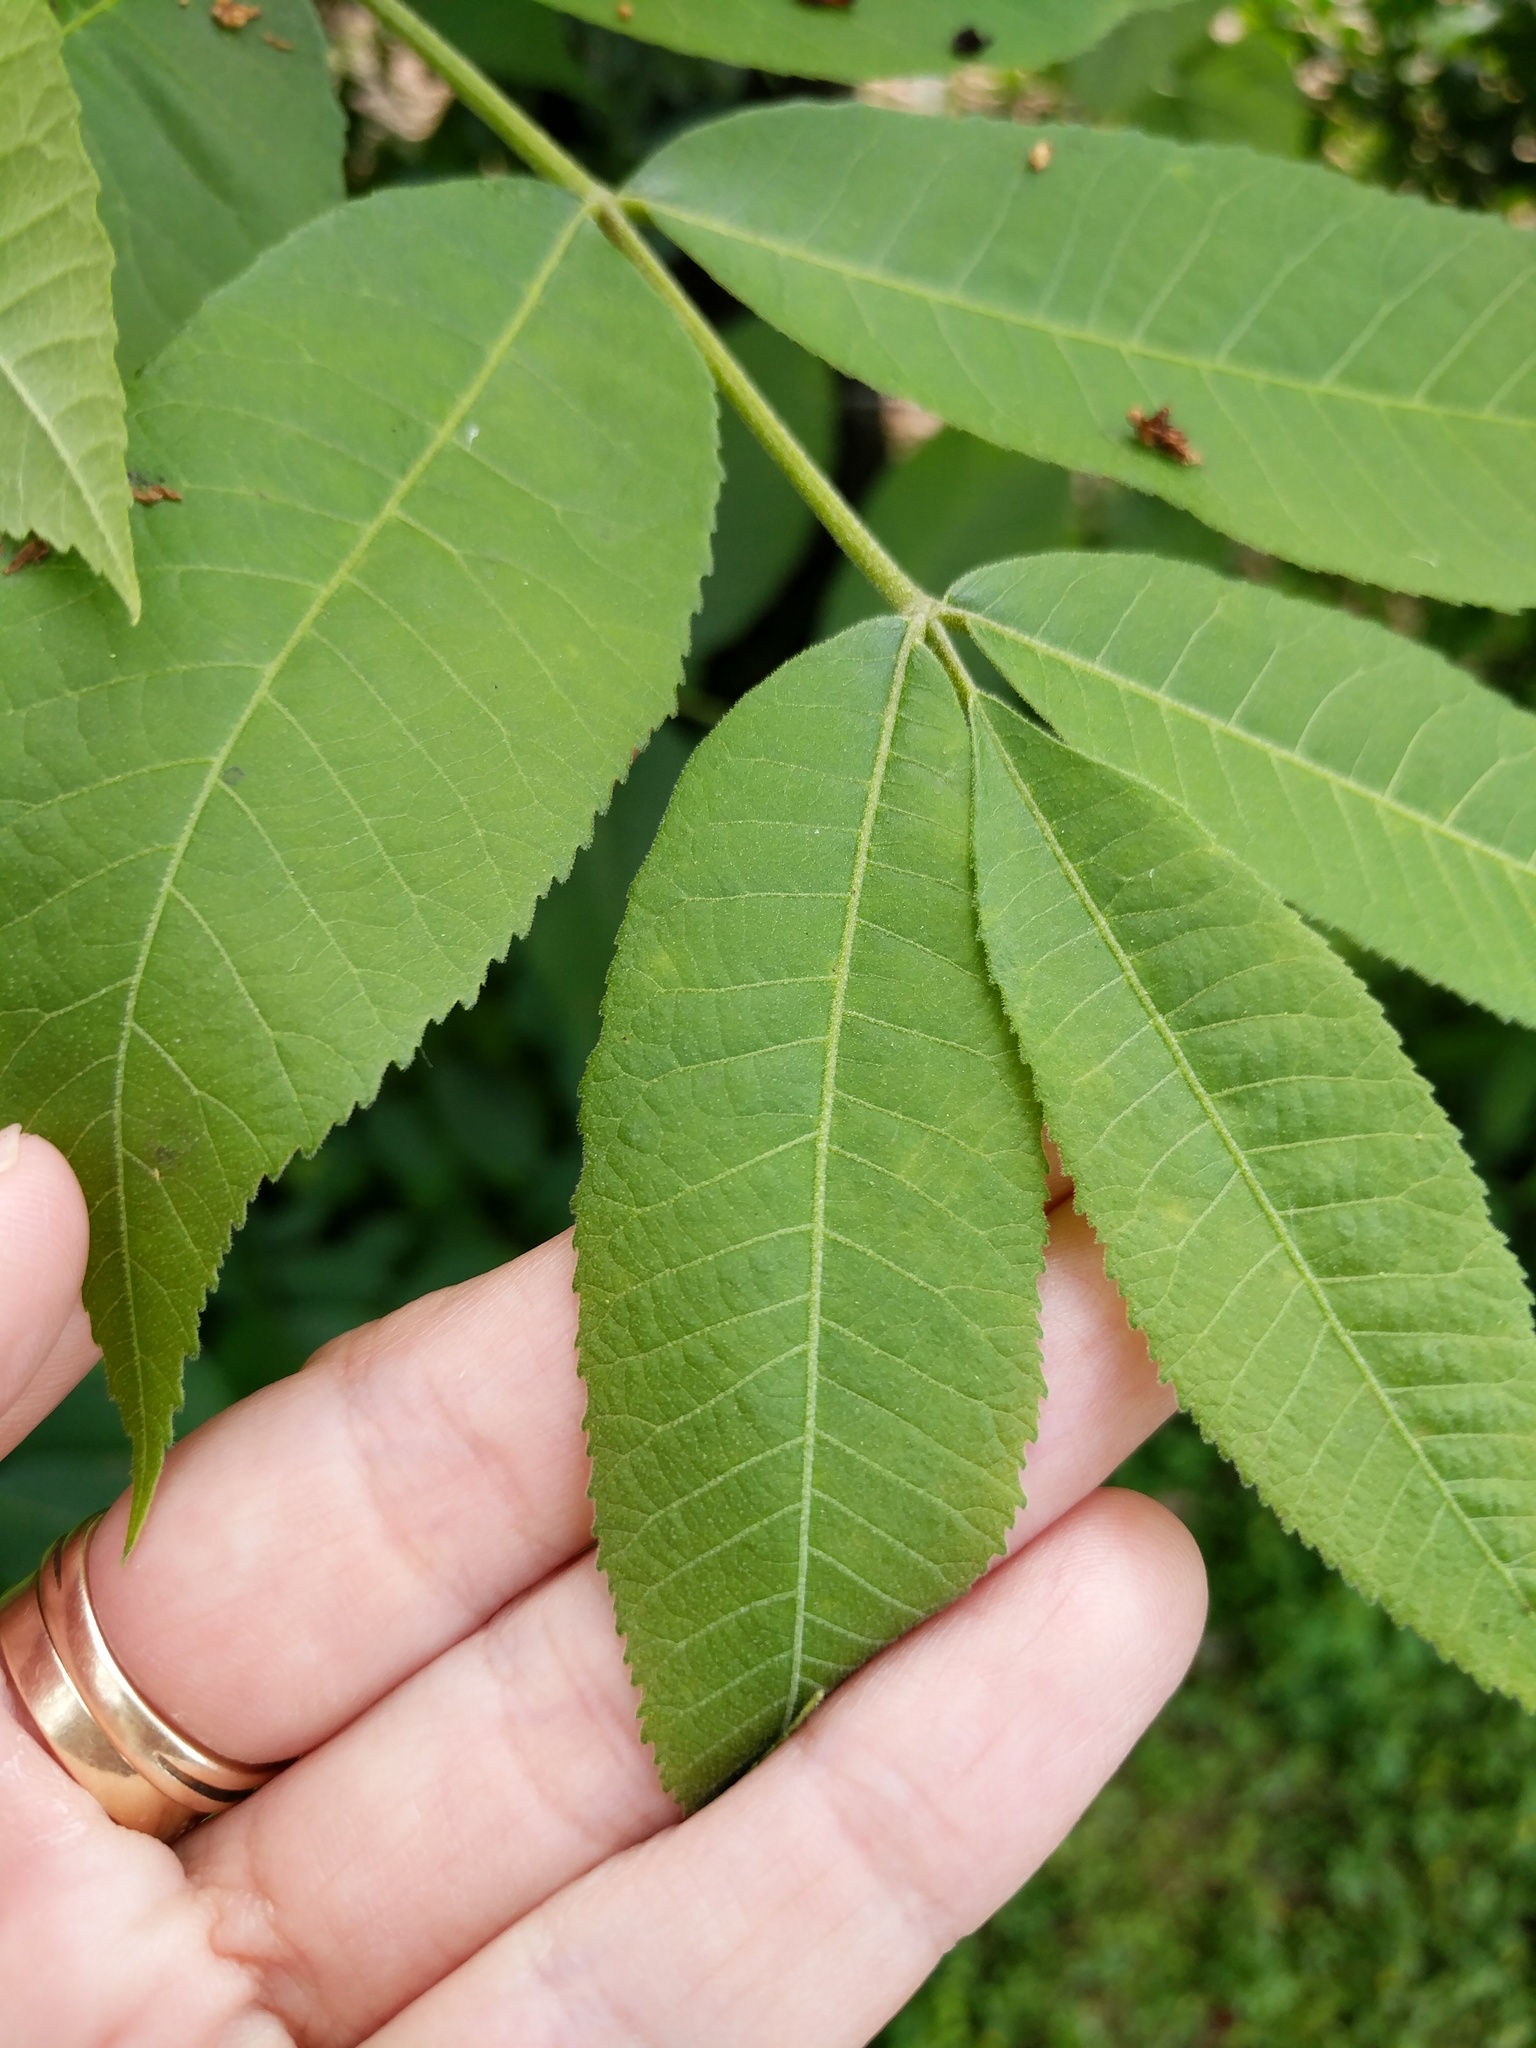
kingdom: Plantae
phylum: Tracheophyta
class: Magnoliopsida
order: Fagales
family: Juglandaceae
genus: Carya
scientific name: Carya illinoinensis
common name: Pecan
